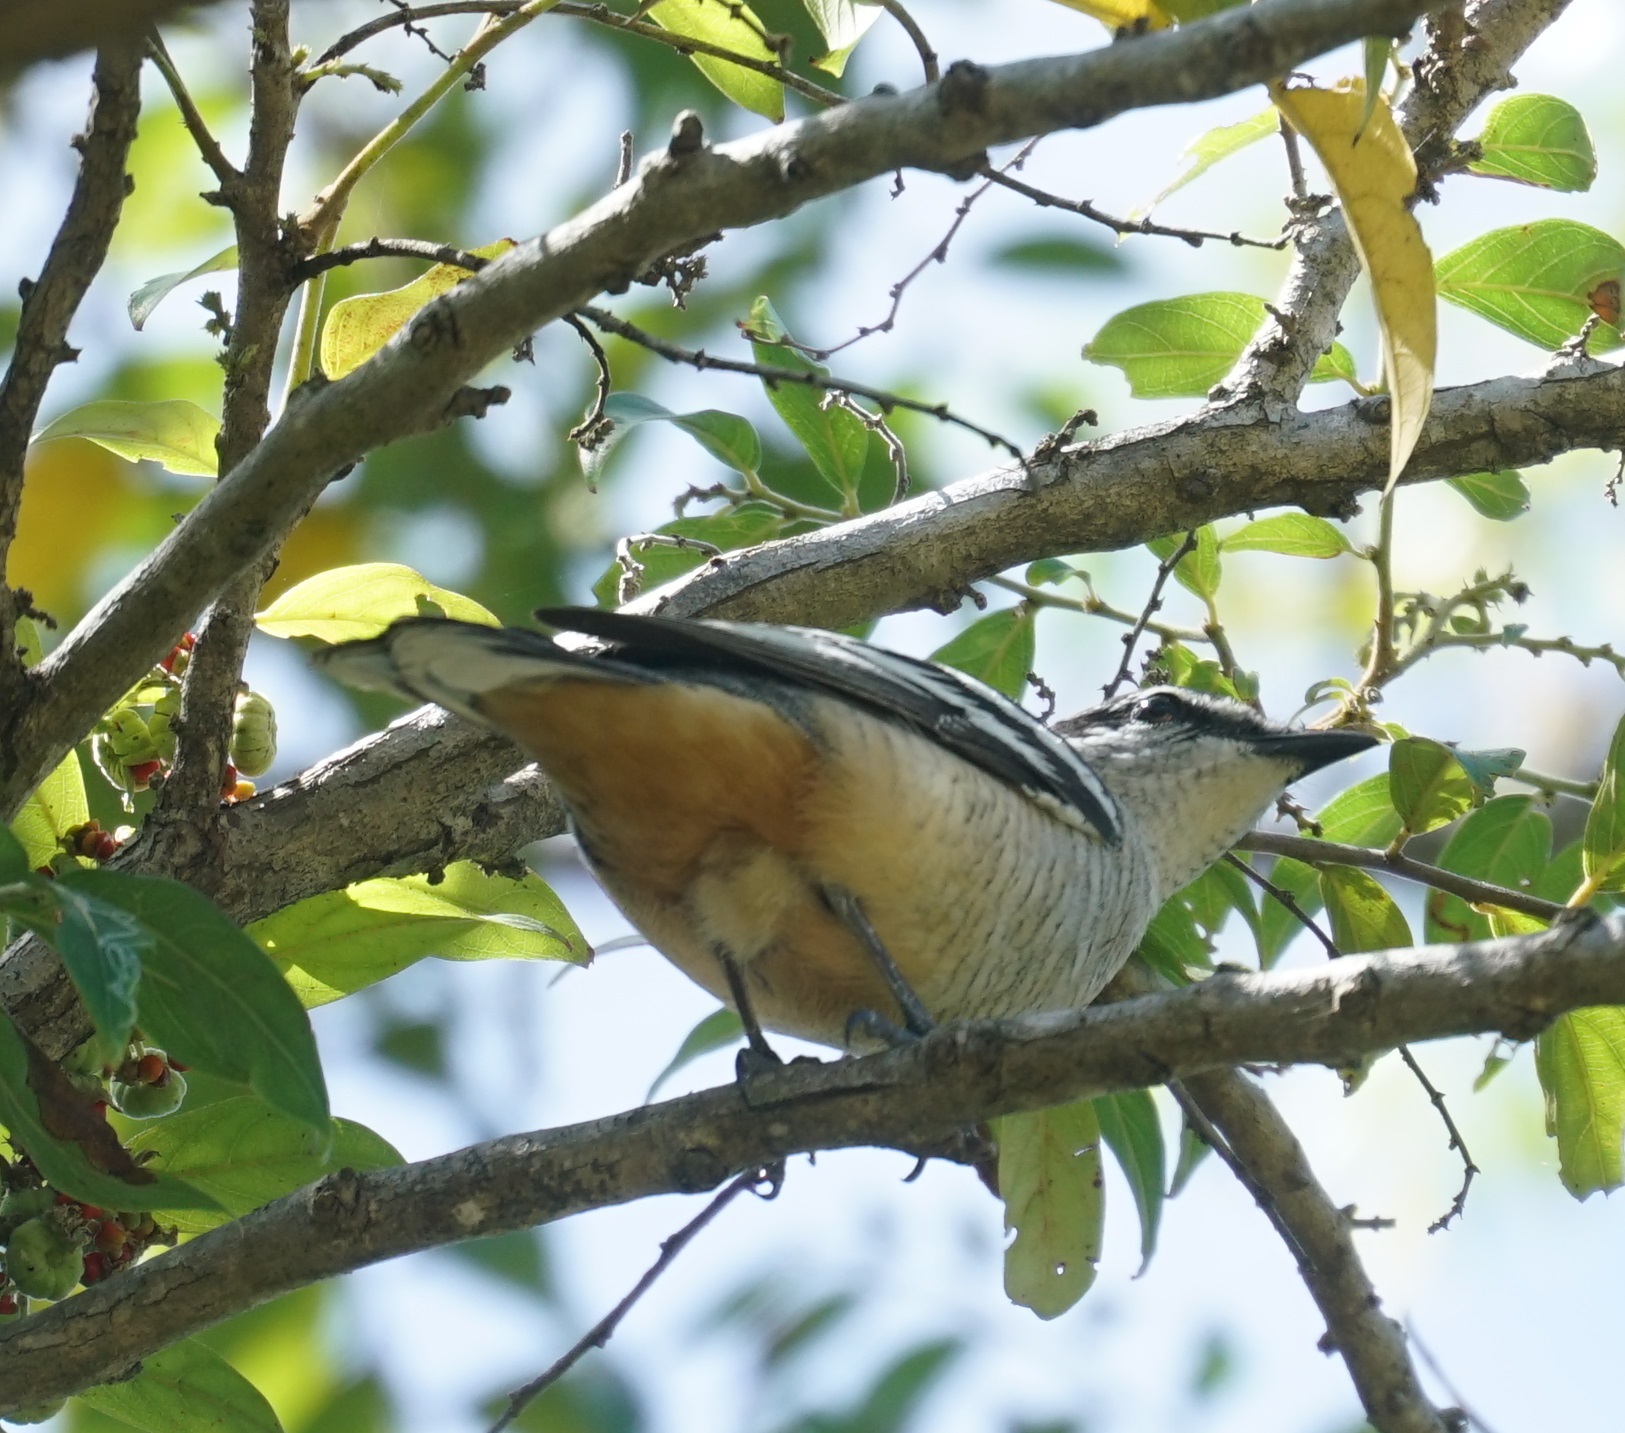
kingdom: Animalia
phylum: Chordata
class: Aves
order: Passeriformes
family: Campephagidae
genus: Lalage
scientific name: Lalage leucomela
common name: Varied triller
